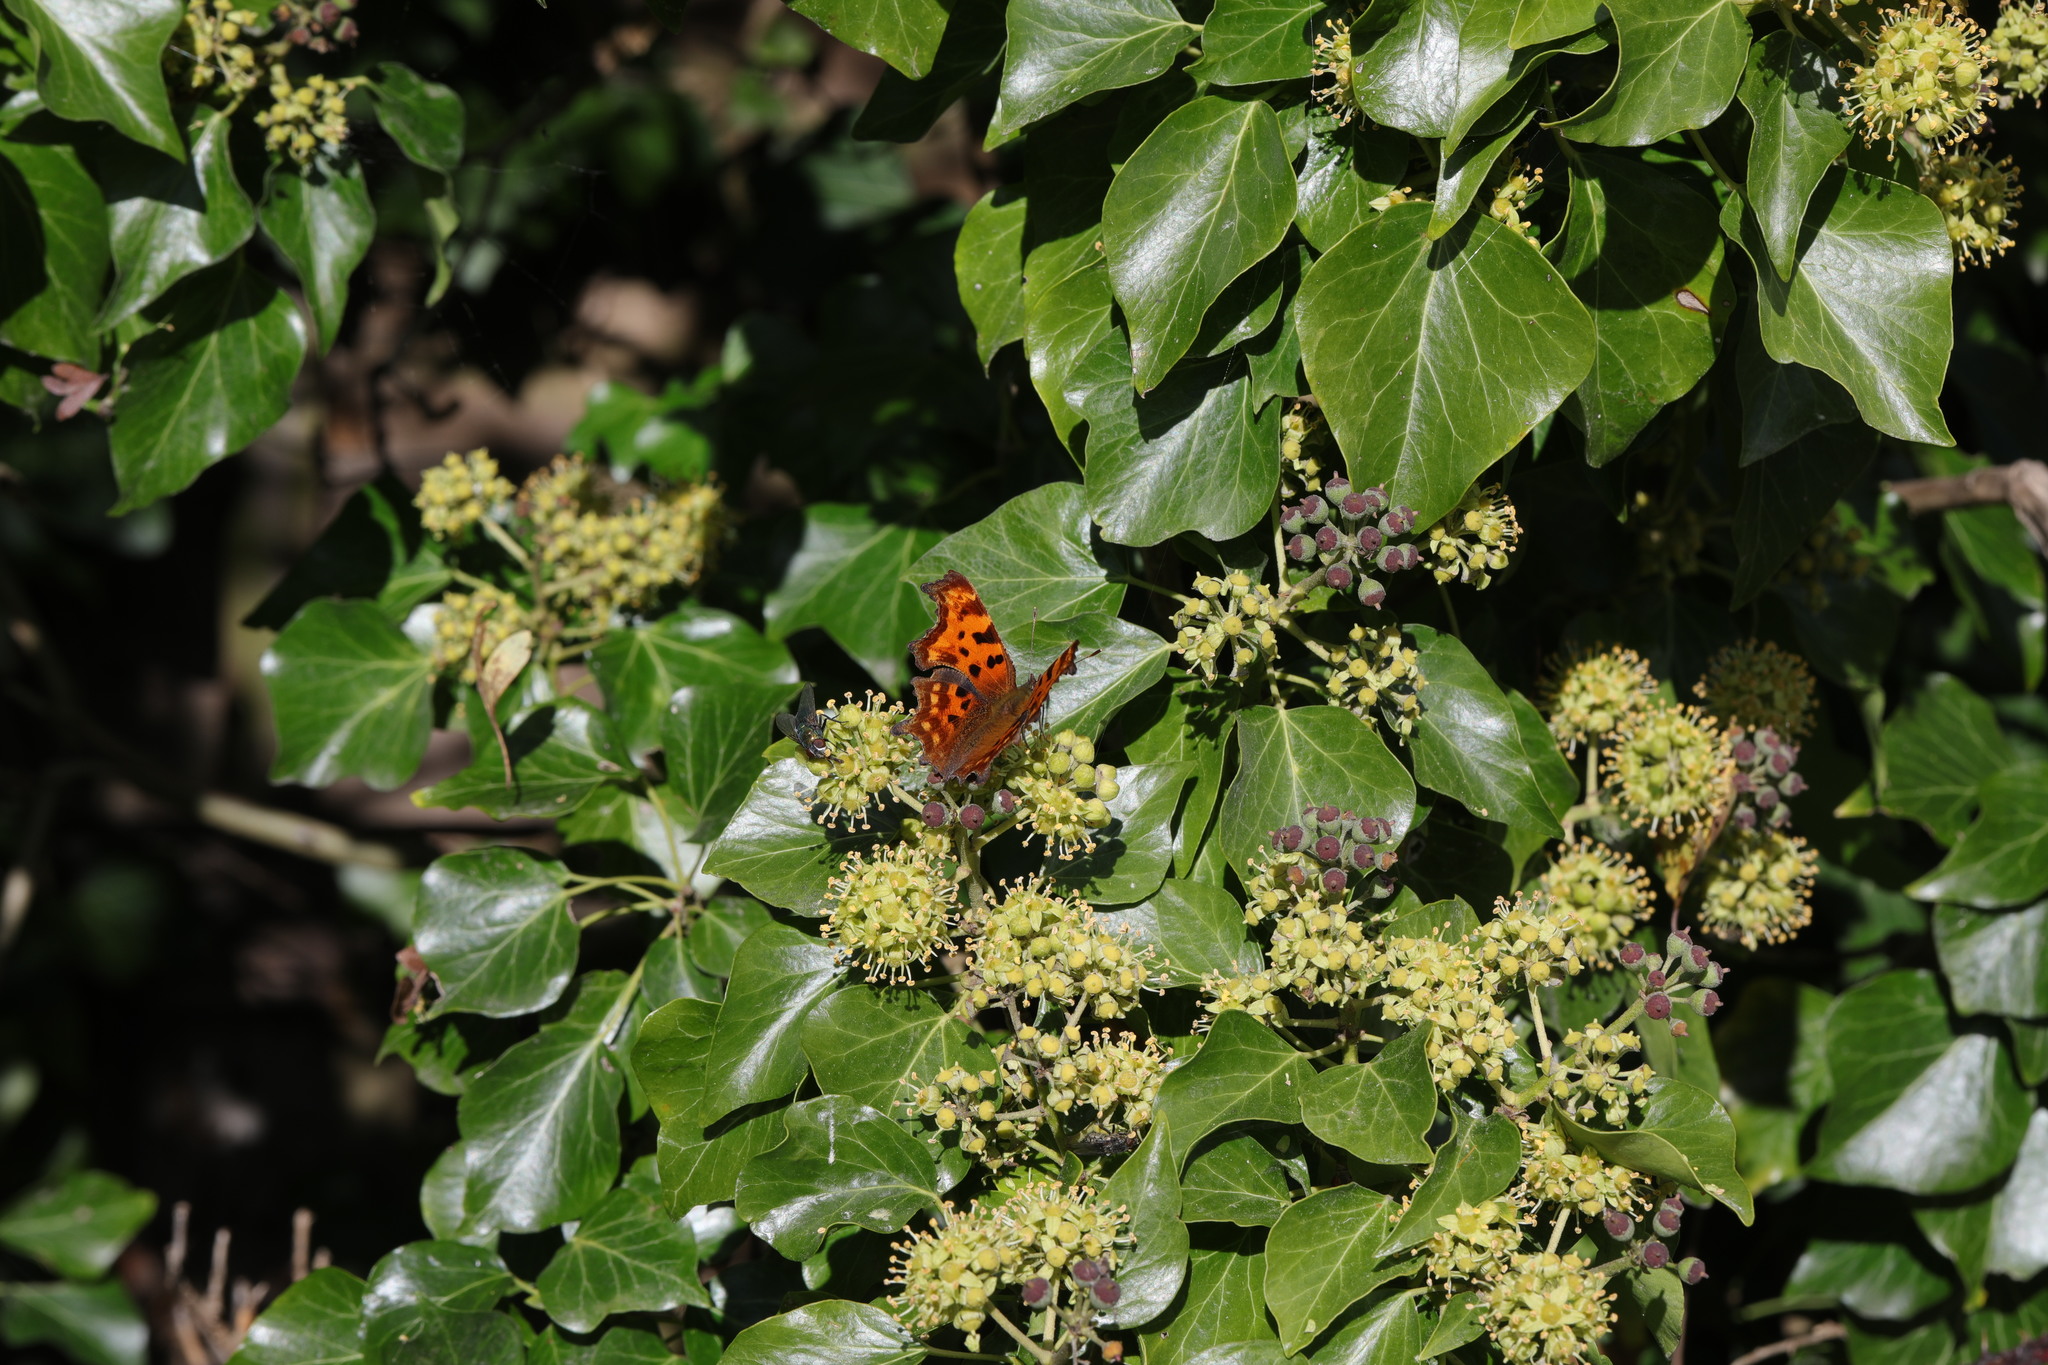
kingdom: Animalia
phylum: Arthropoda
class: Insecta
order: Lepidoptera
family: Nymphalidae
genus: Polygonia
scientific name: Polygonia c-album
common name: Comma
